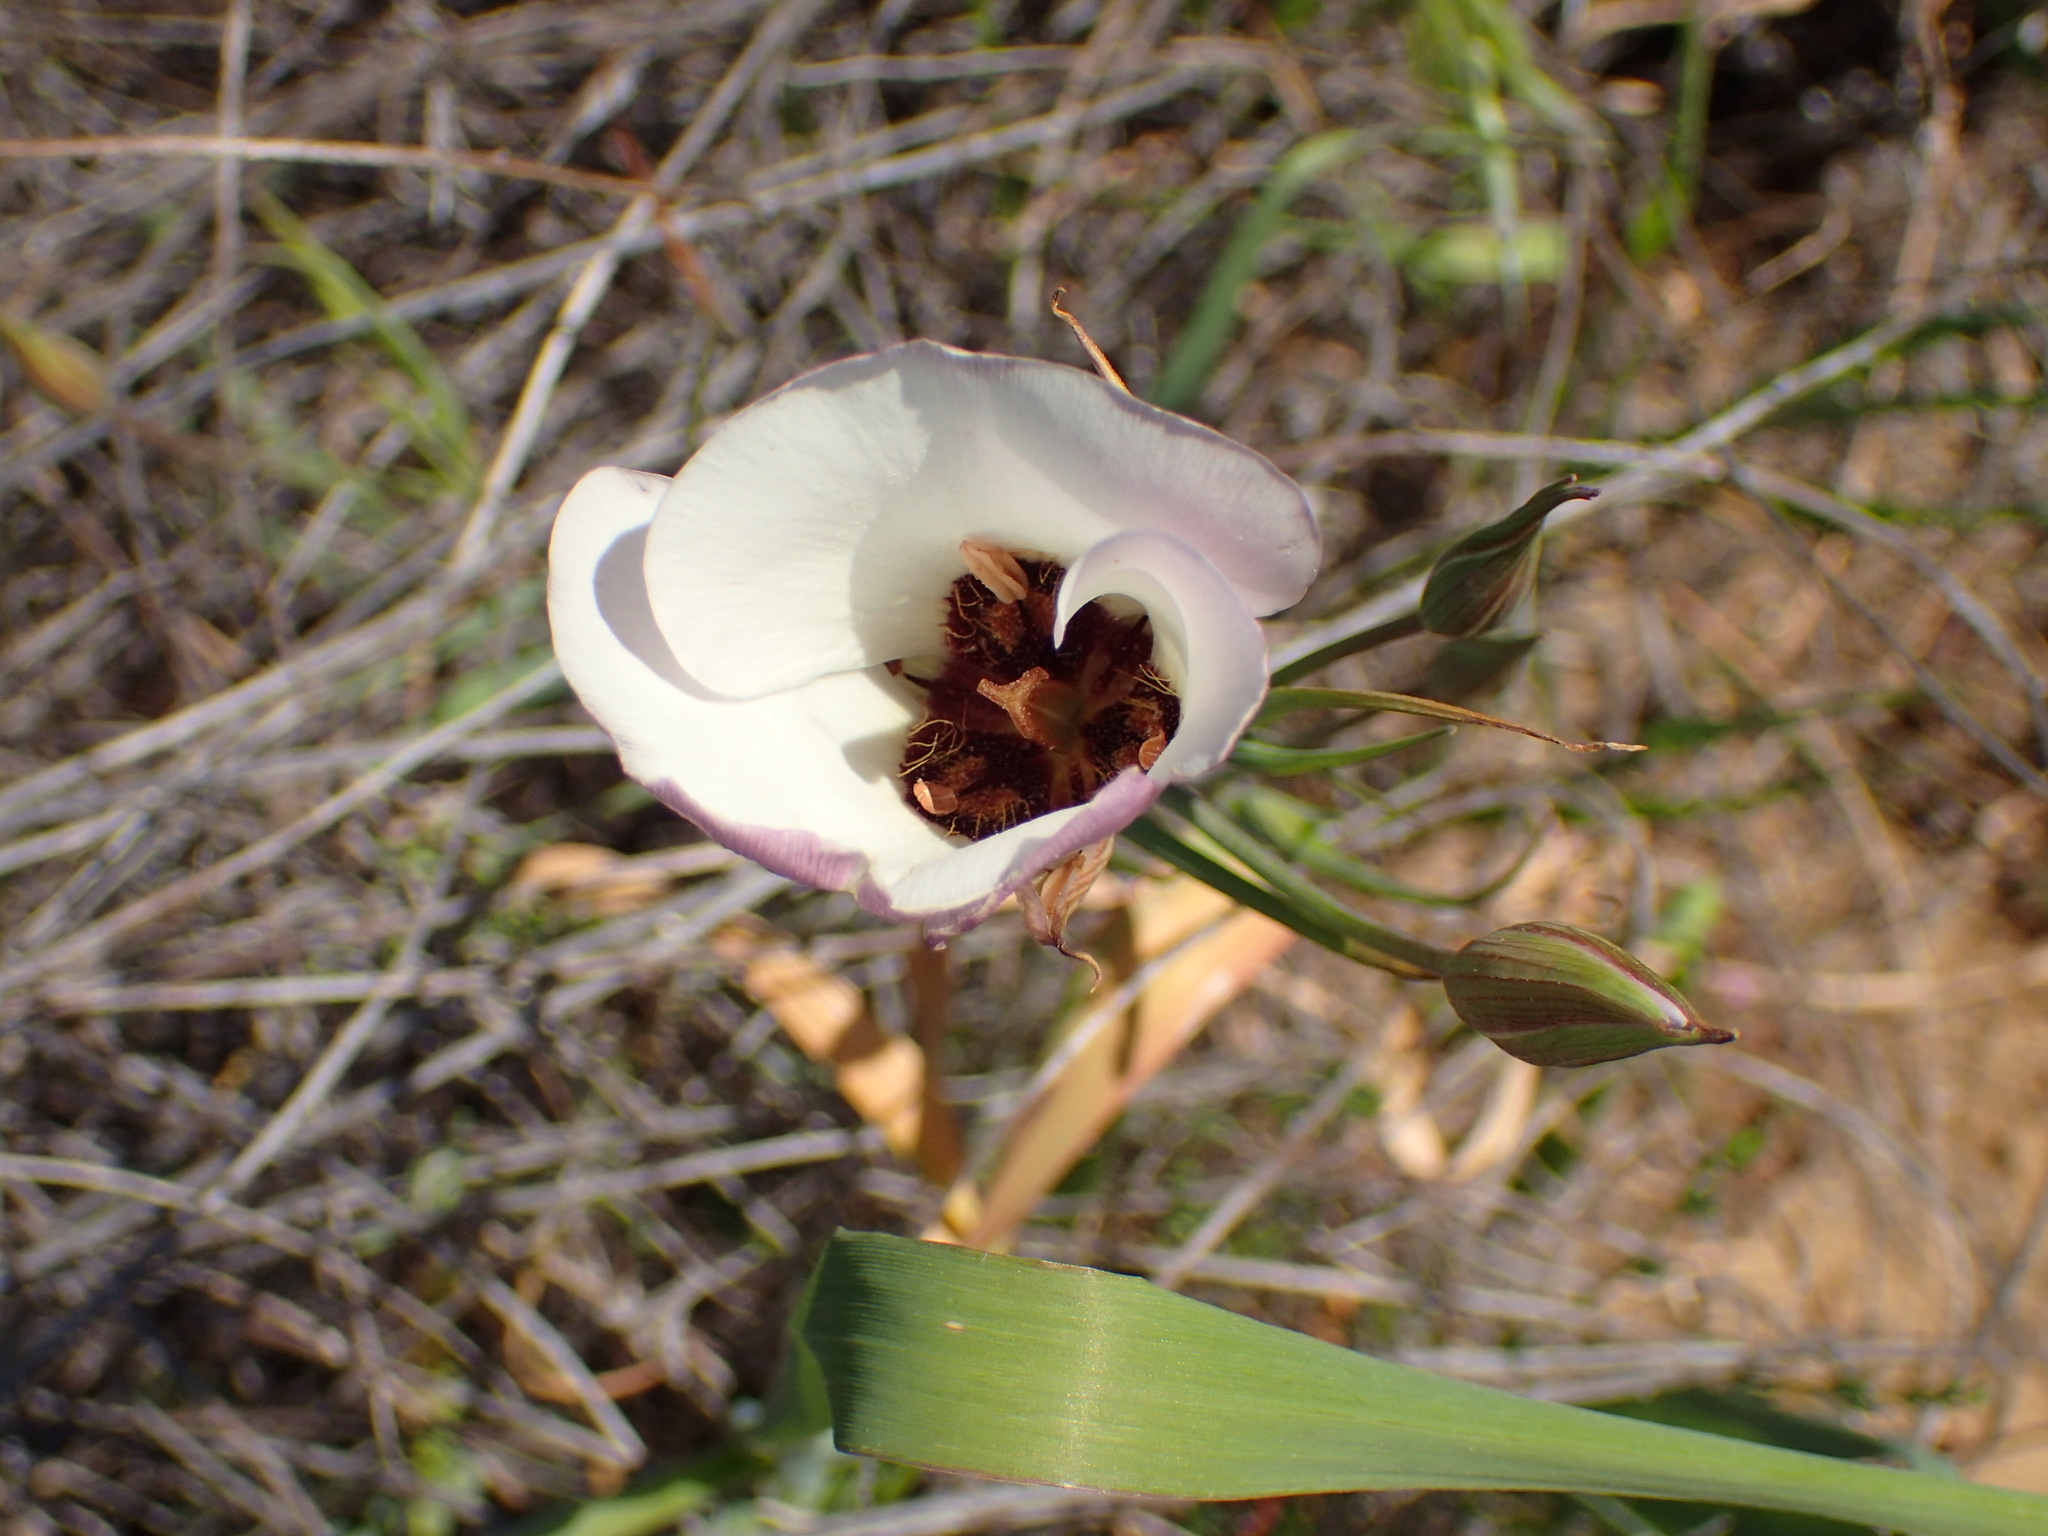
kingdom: Plantae
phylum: Tracheophyta
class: Liliopsida
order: Liliales
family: Liliaceae
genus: Calochortus
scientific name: Calochortus catalinae
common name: Catalina mariposa-lily
